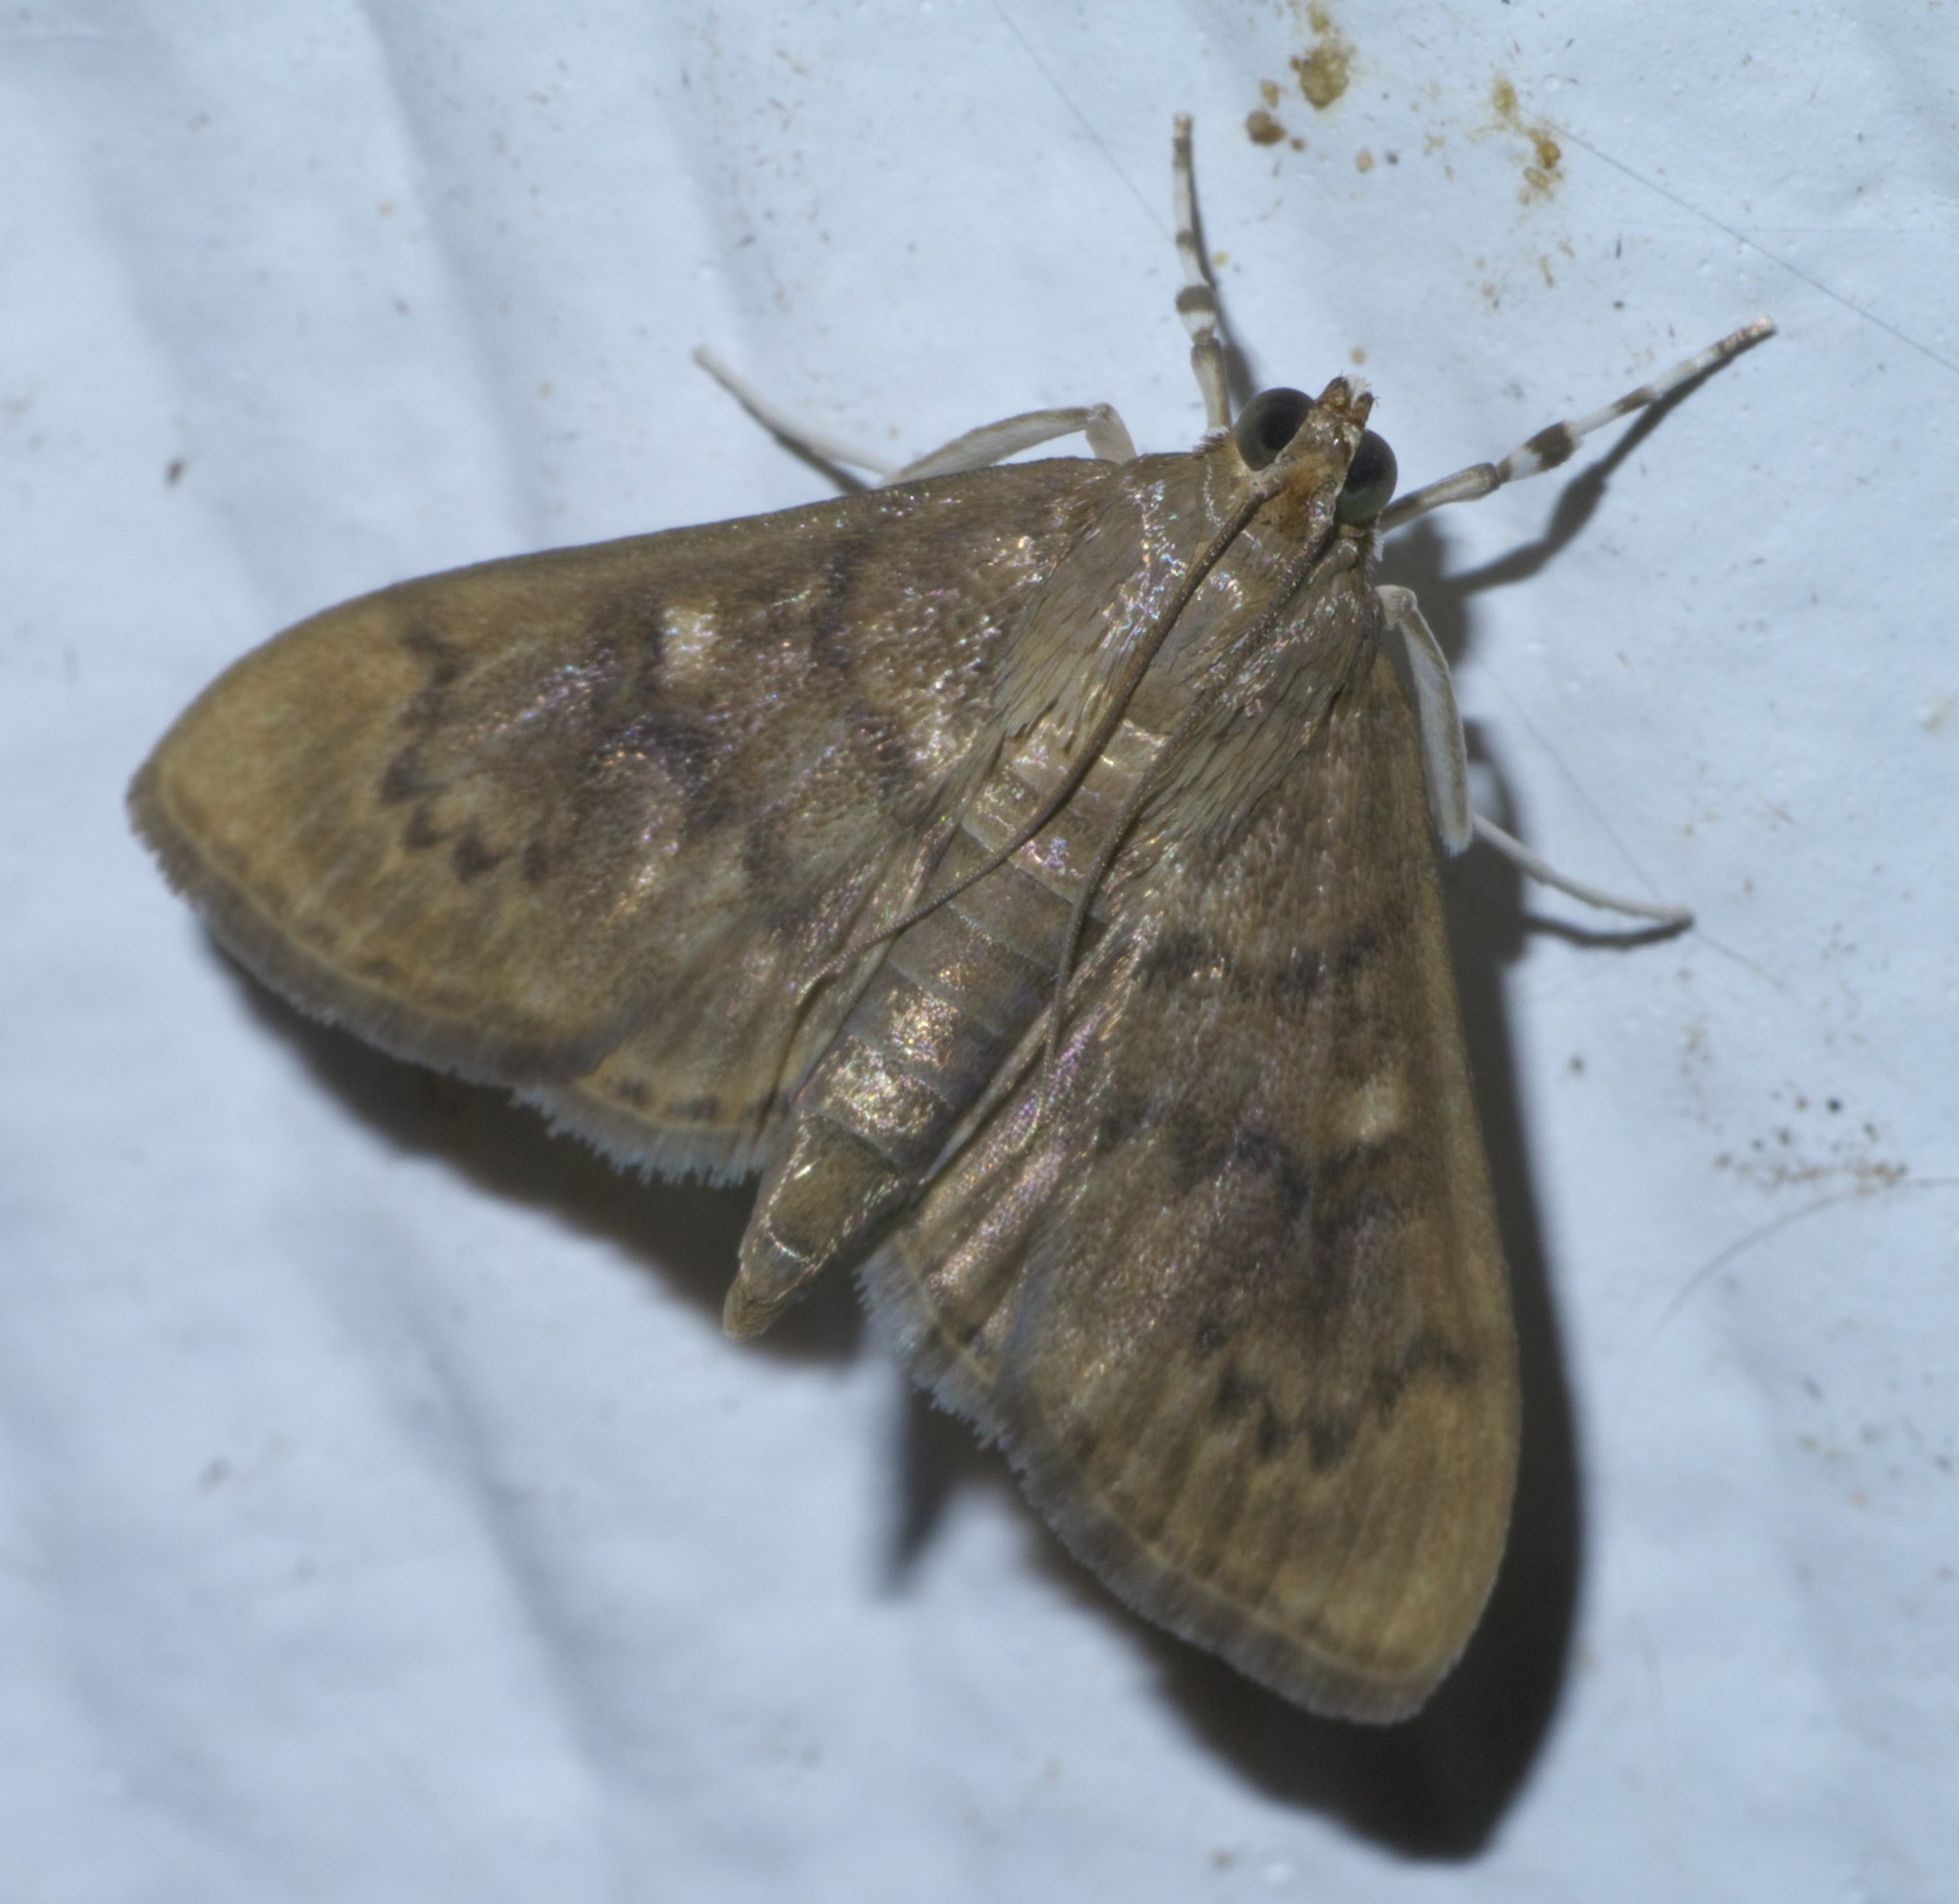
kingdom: Animalia
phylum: Arthropoda
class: Insecta
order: Lepidoptera
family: Crambidae
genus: Syllepte
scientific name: Syllepte obscuralis
